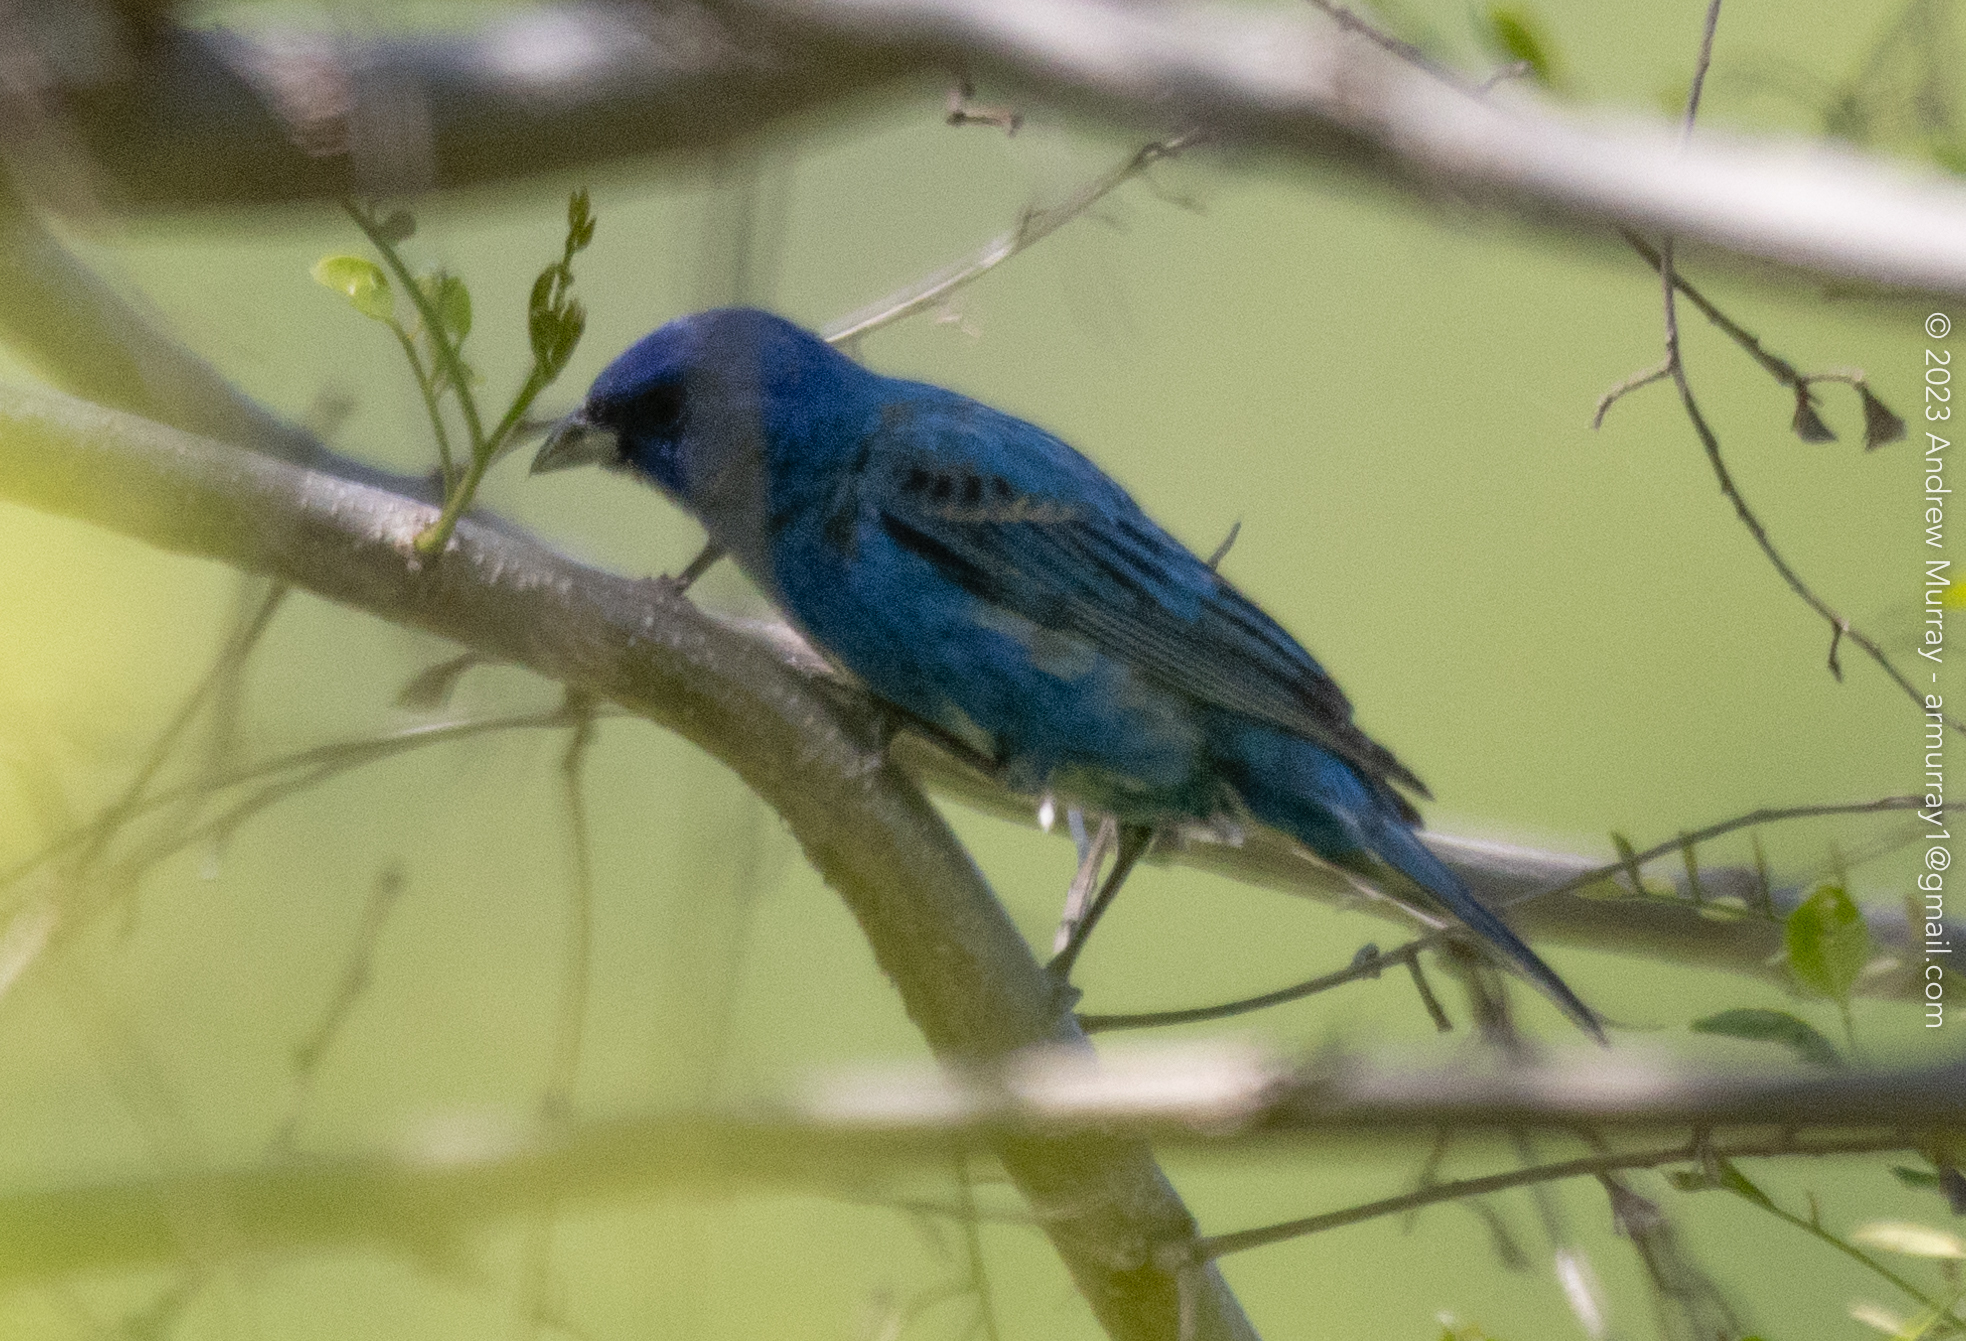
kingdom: Animalia
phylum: Chordata
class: Aves
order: Passeriformes
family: Cardinalidae
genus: Passerina
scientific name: Passerina cyanea
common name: Indigo bunting
